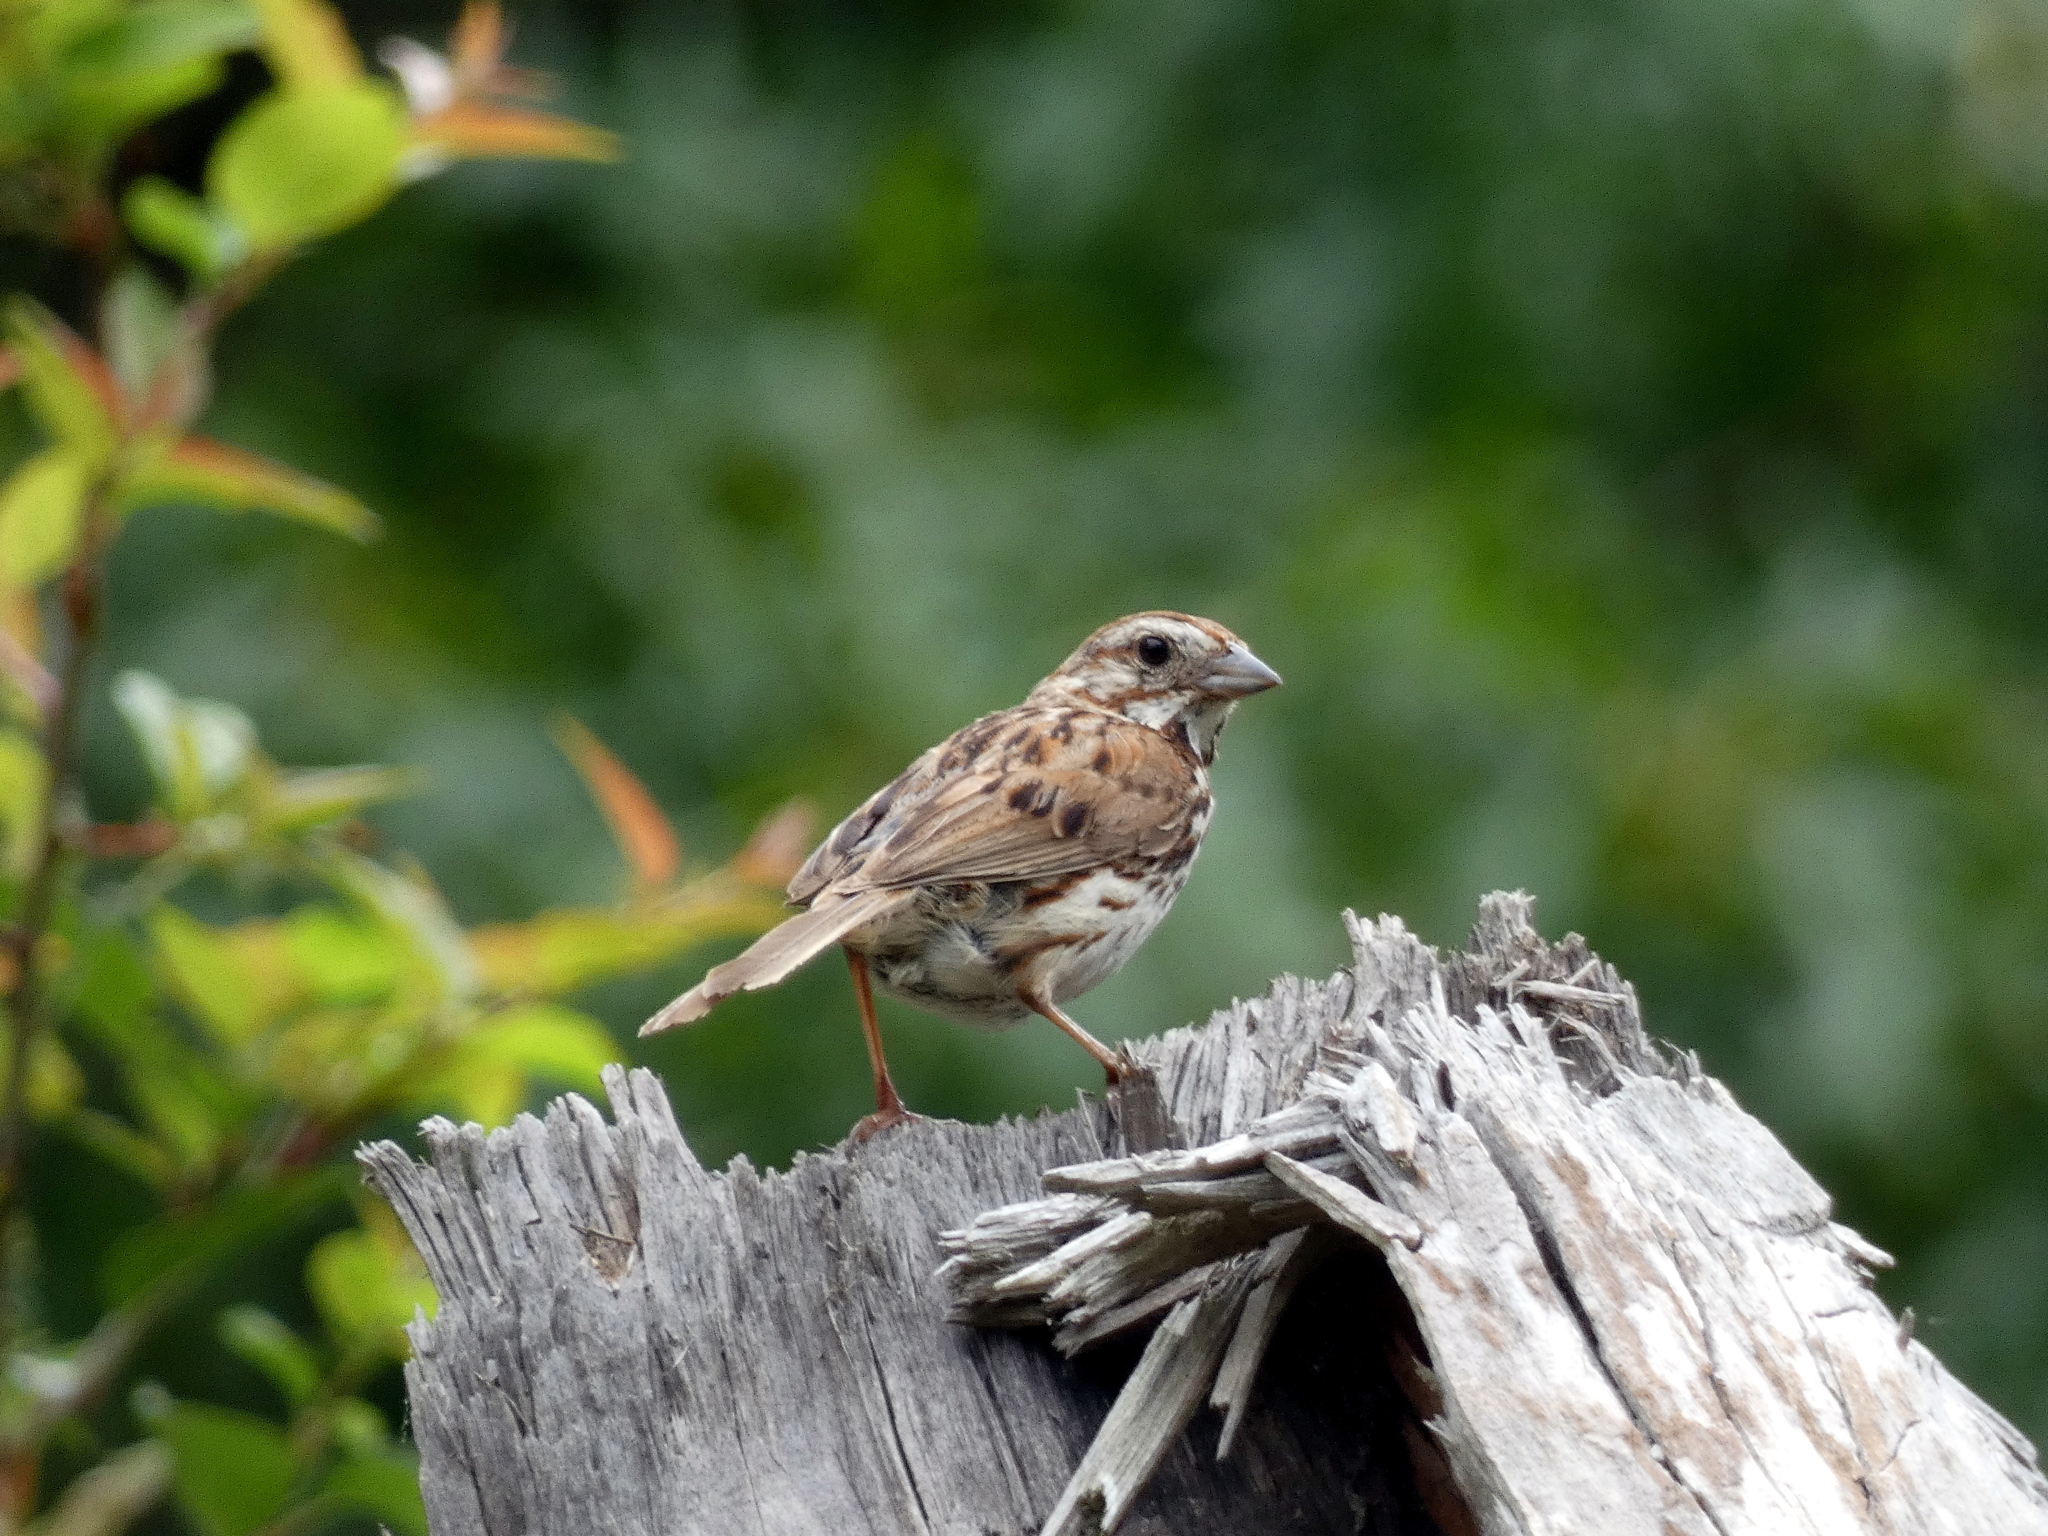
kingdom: Animalia
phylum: Chordata
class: Aves
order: Passeriformes
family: Passerellidae
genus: Melospiza
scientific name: Melospiza melodia
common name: Song sparrow
